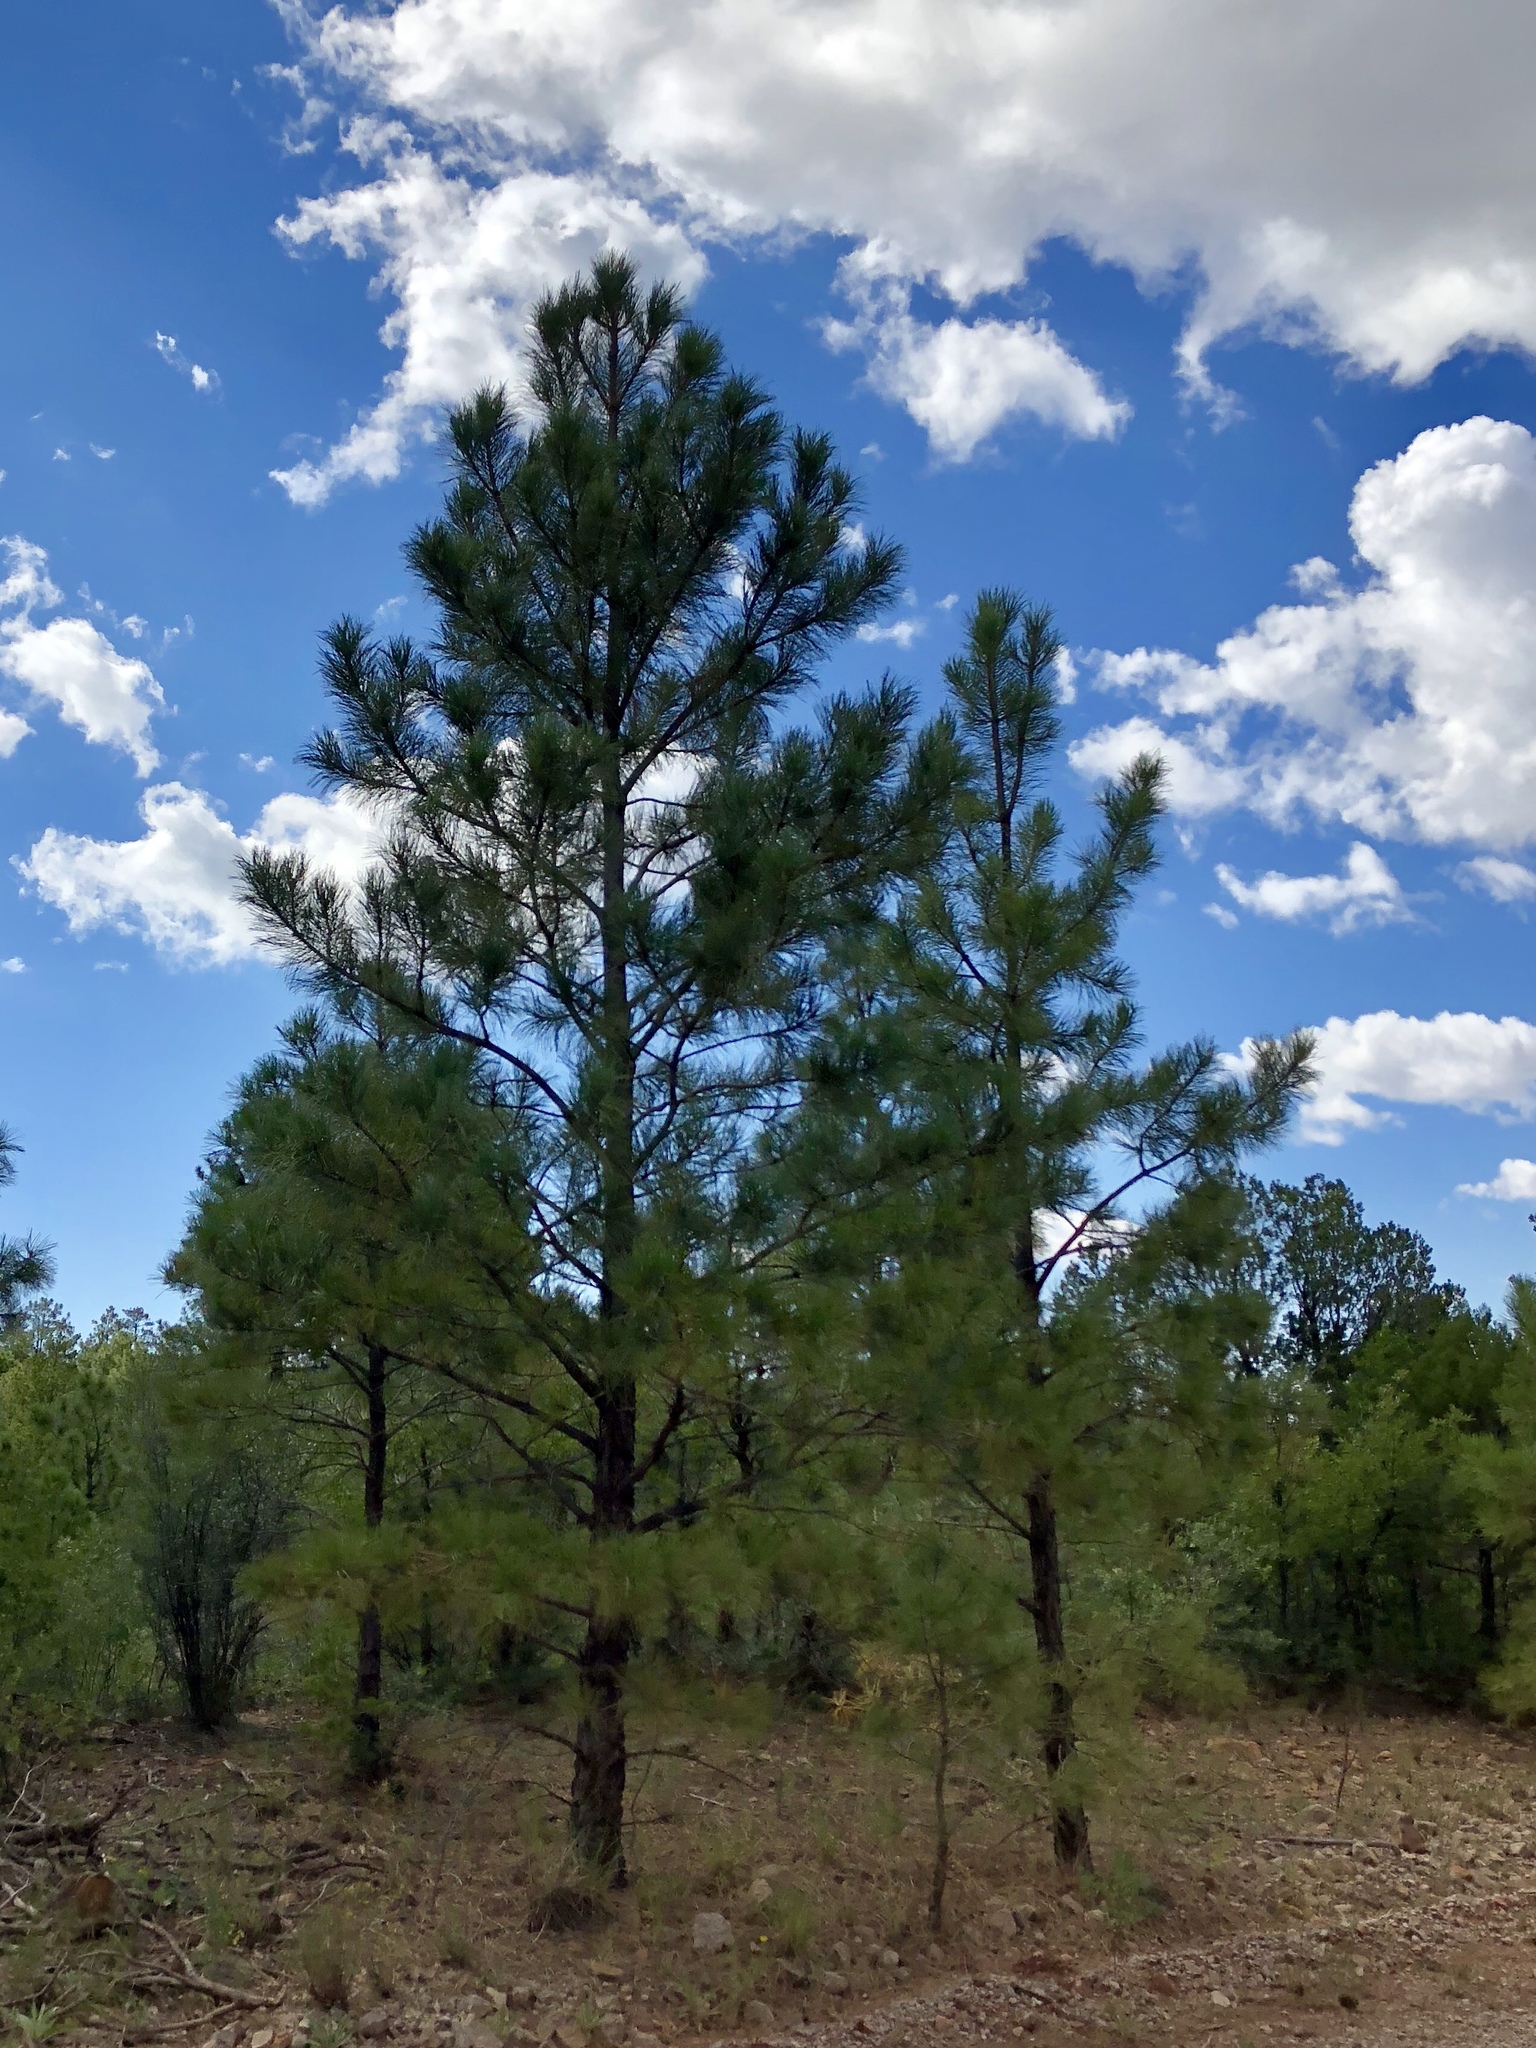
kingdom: Plantae
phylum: Tracheophyta
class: Pinopsida
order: Pinales
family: Pinaceae
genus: Pinus
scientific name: Pinus ponderosa
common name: Western yellow-pine
